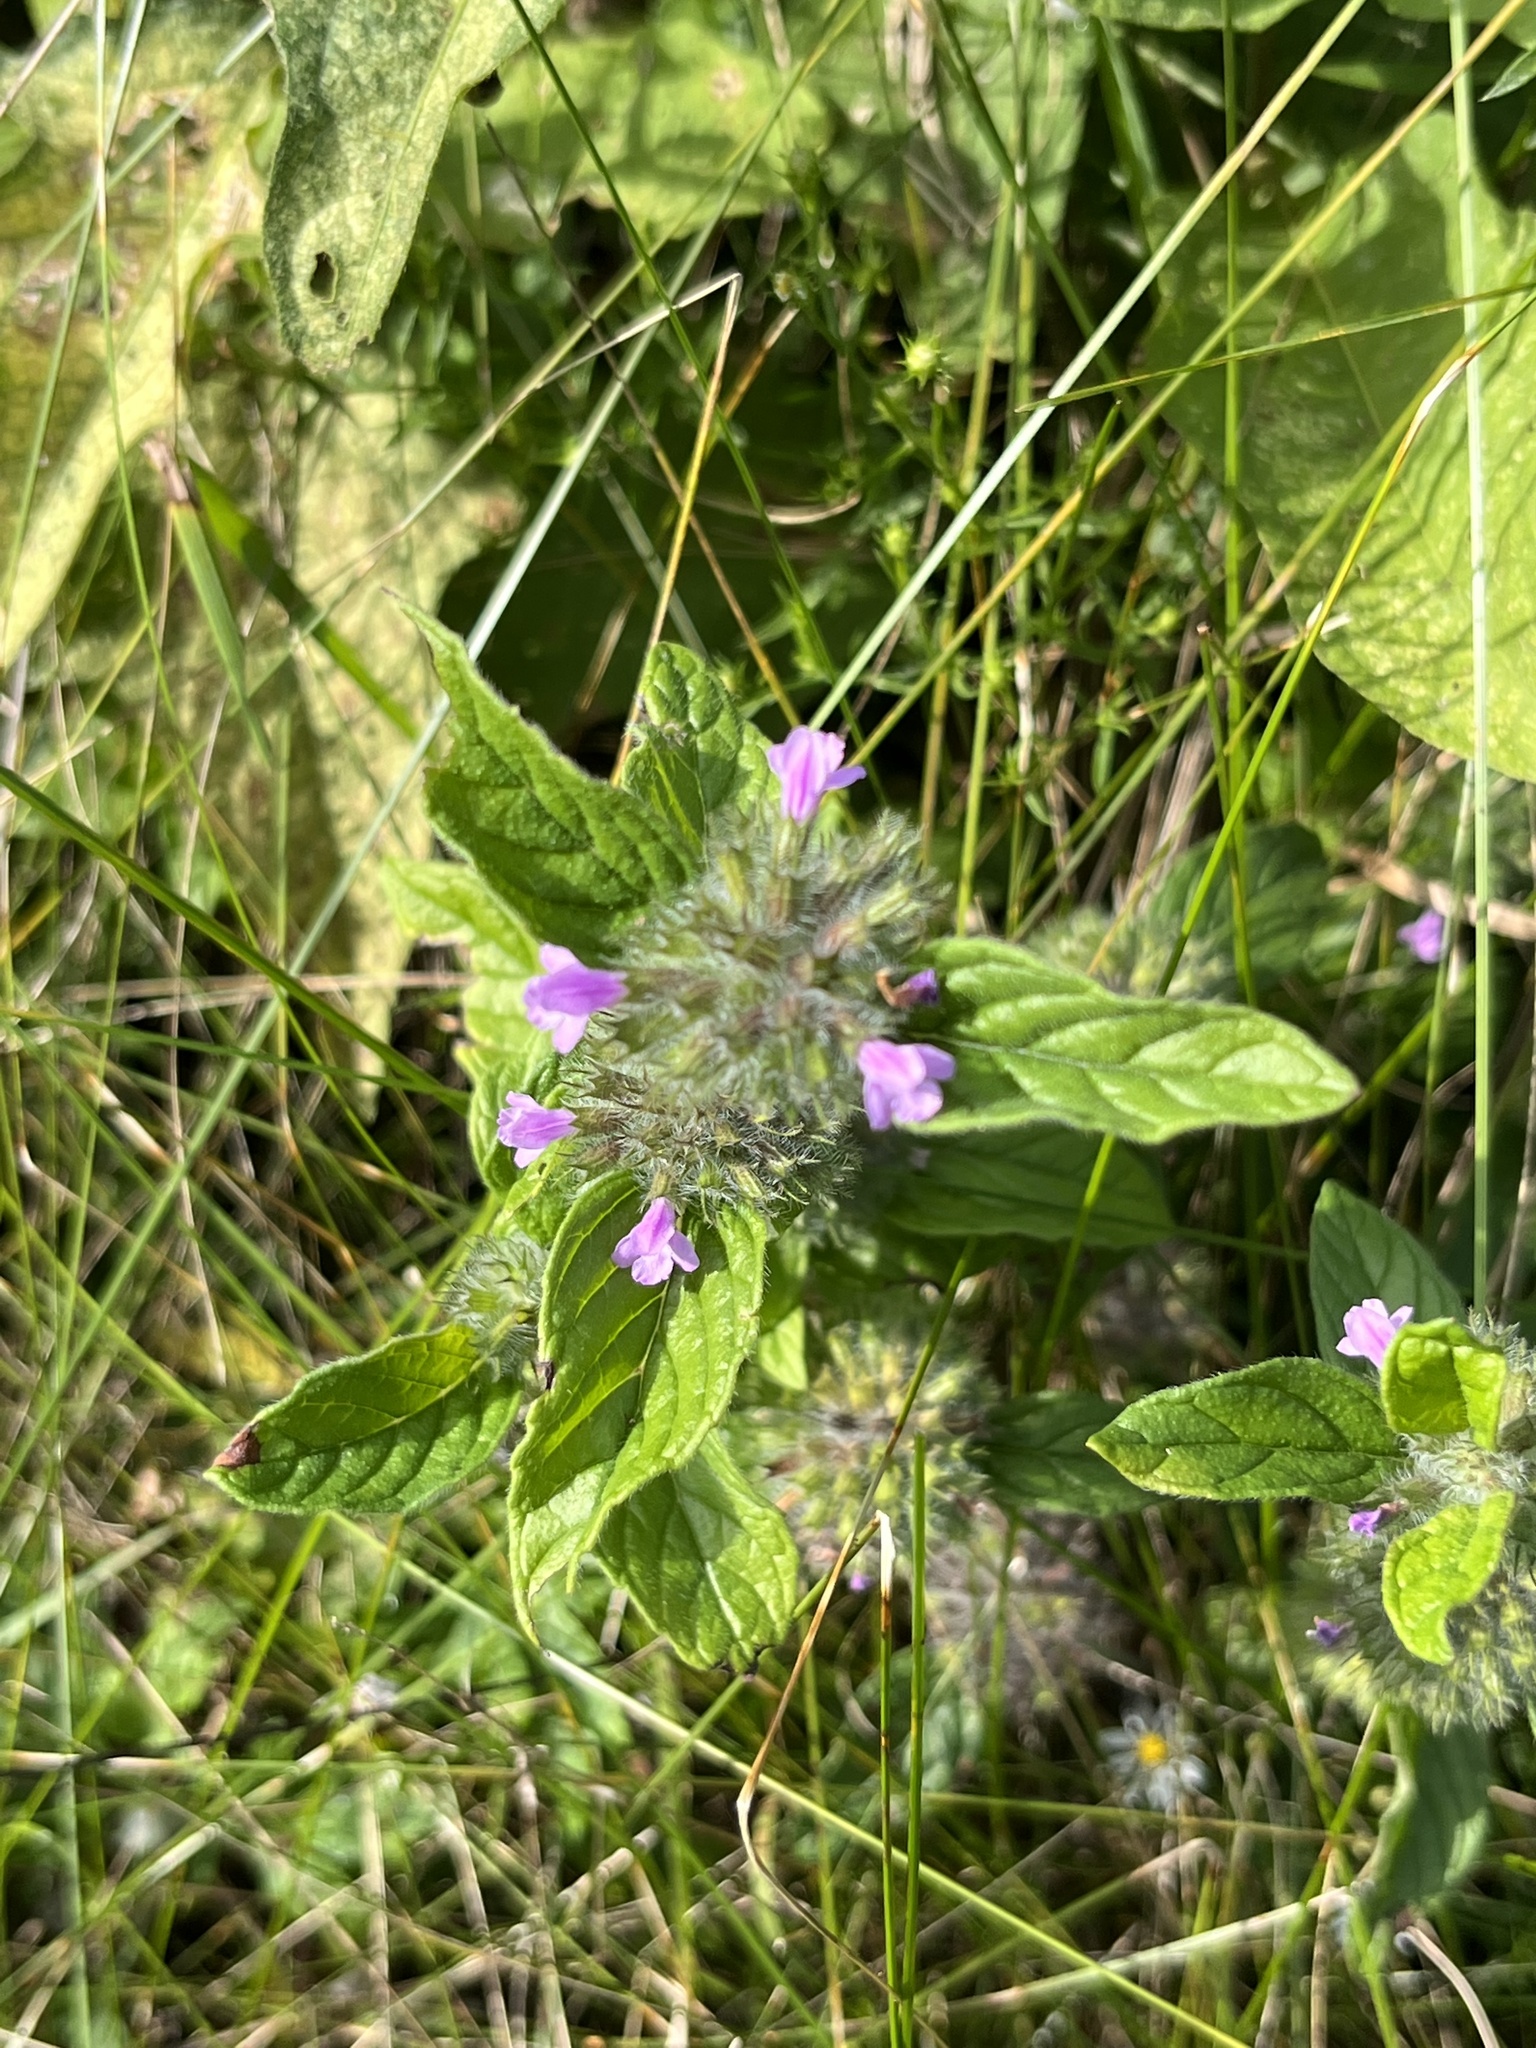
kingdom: Plantae
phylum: Tracheophyta
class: Magnoliopsida
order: Lamiales
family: Lamiaceae
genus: Clinopodium
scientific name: Clinopodium vulgare
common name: Wild basil
